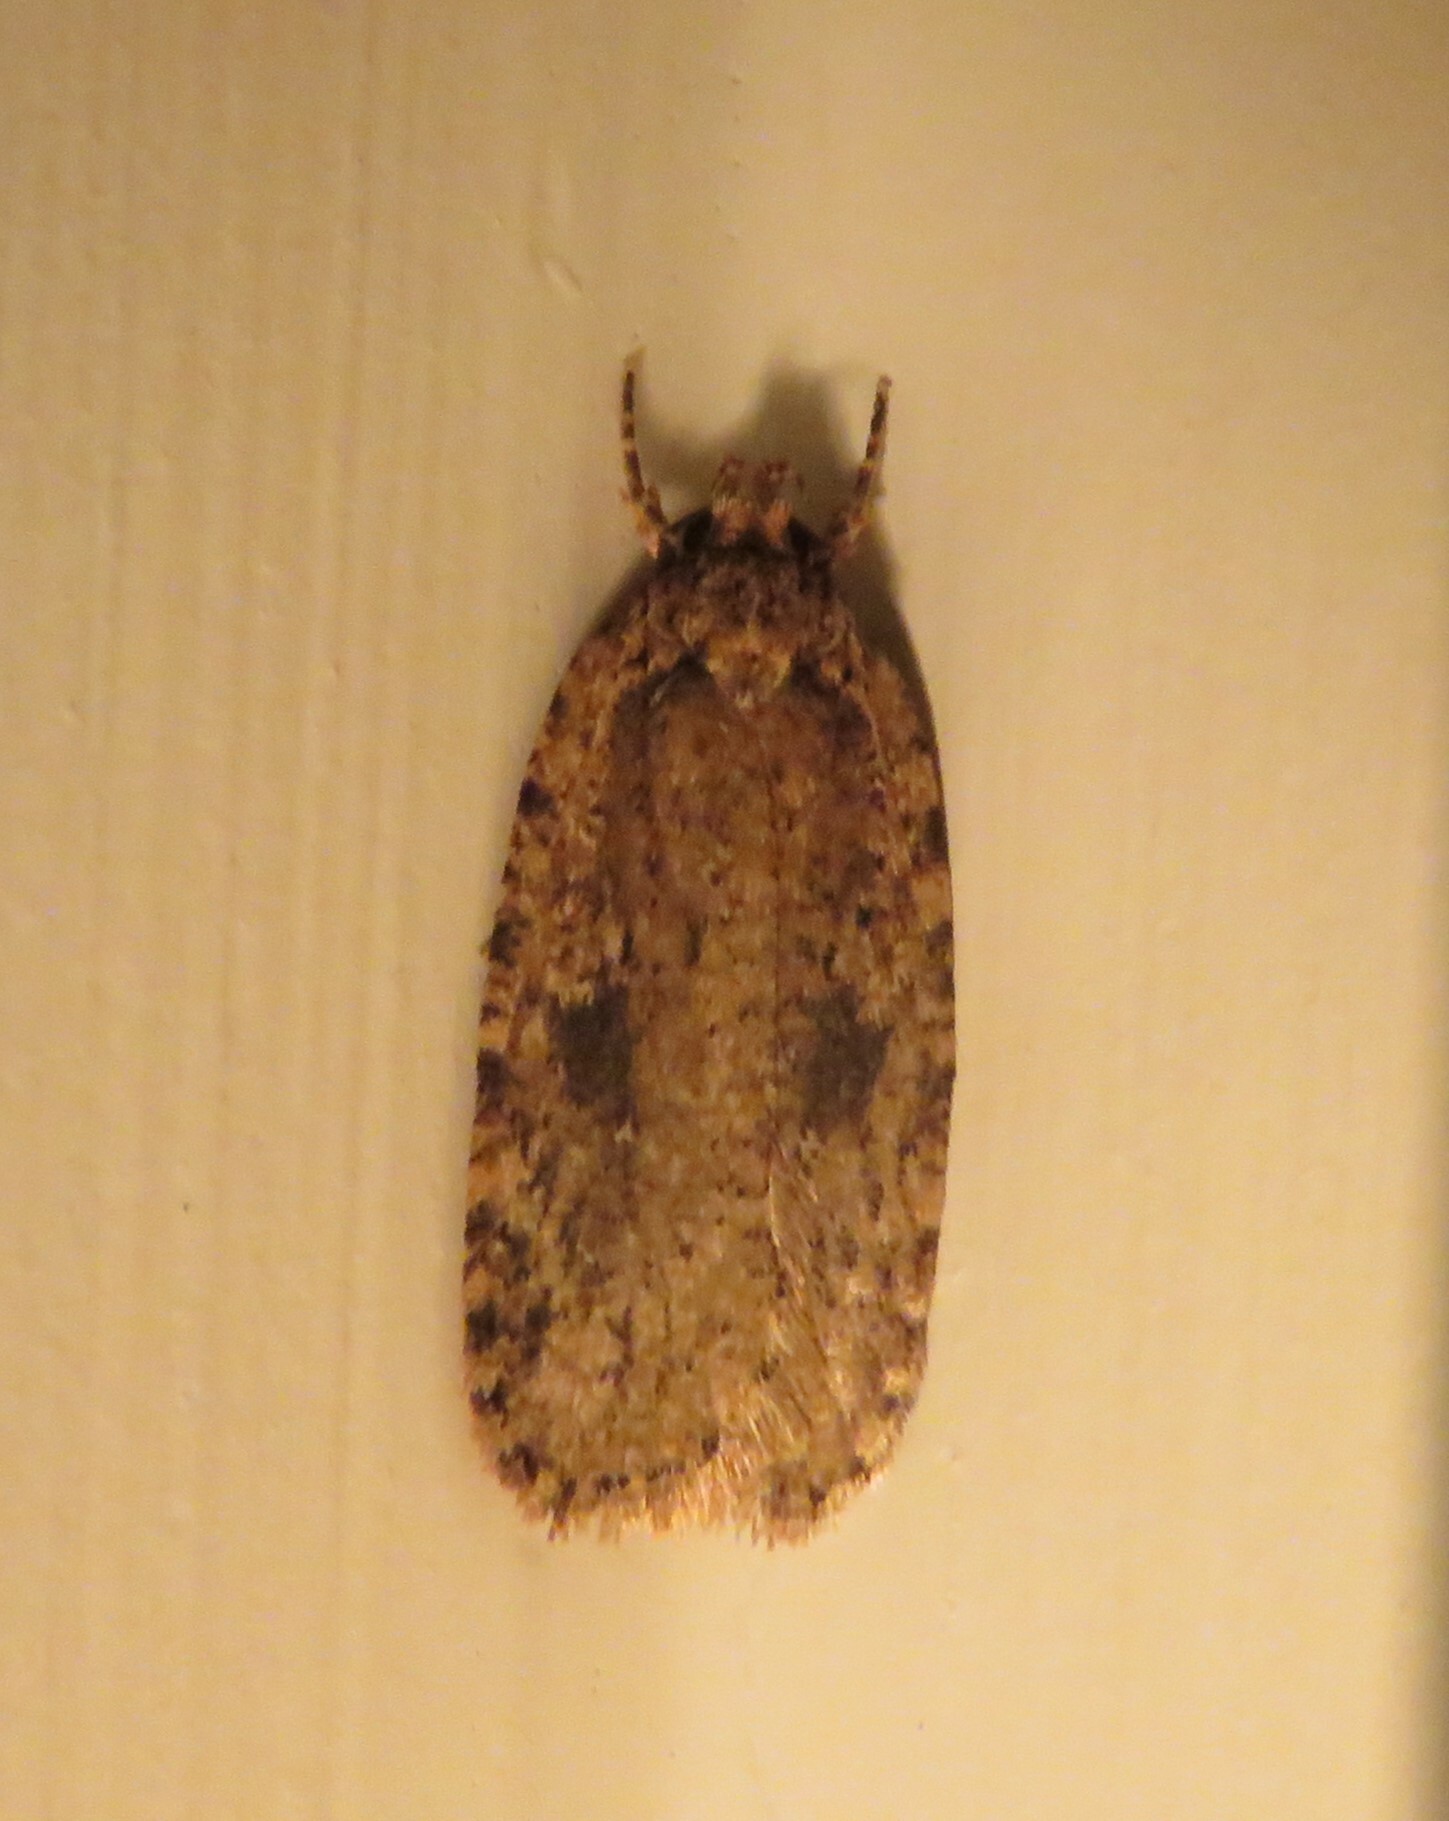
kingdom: Animalia
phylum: Arthropoda
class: Insecta
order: Lepidoptera
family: Depressariidae
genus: Agonopterix
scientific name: Agonopterix pulvipennella
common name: Goldenrod leafffolder
